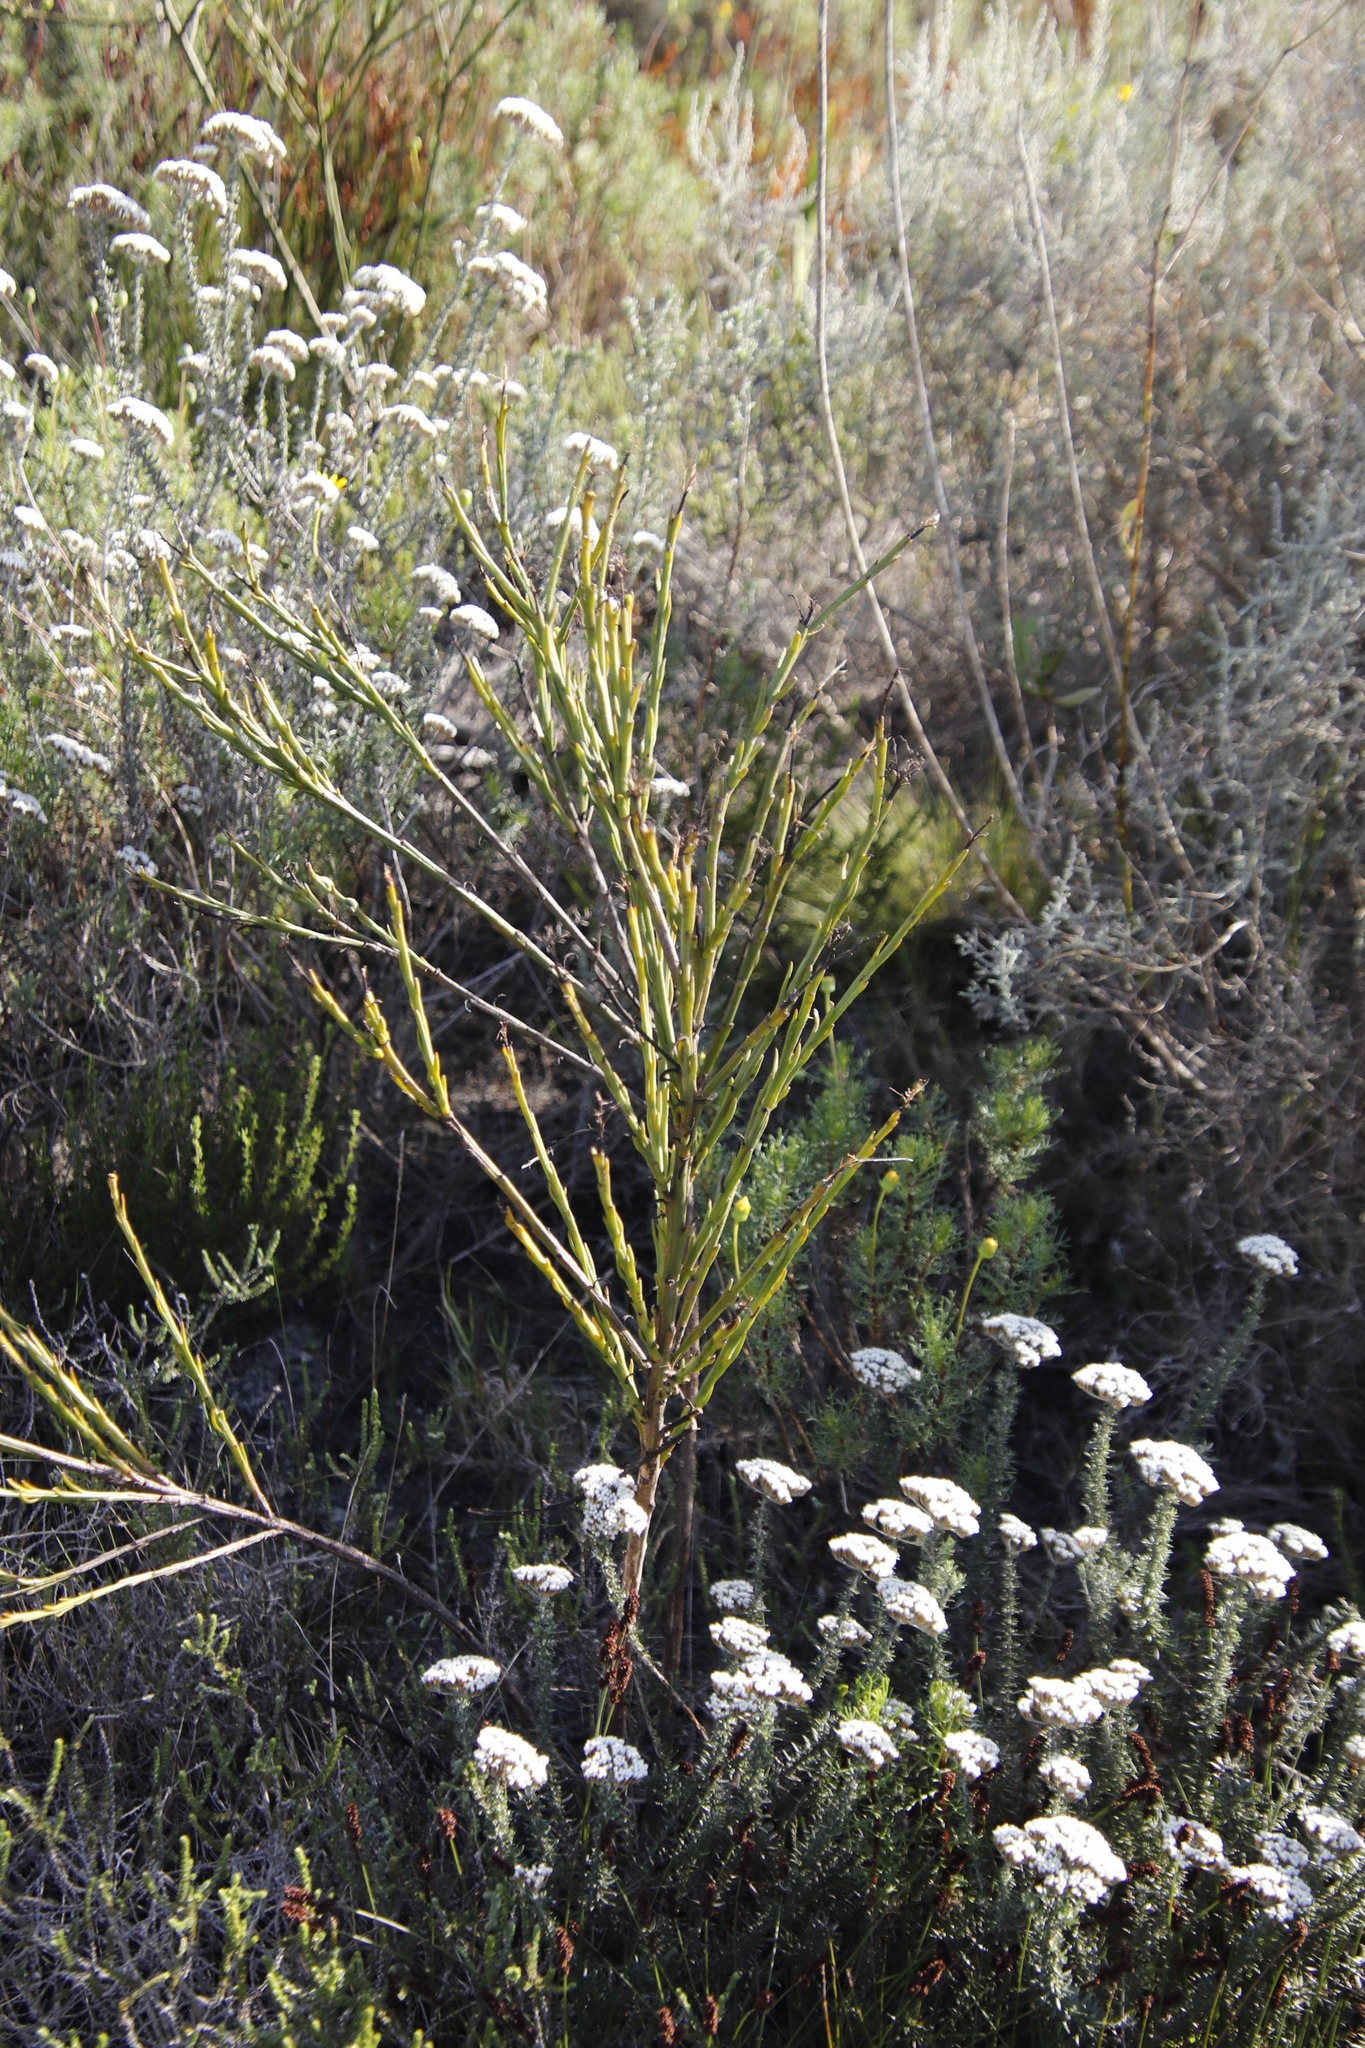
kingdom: Plantae
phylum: Tracheophyta
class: Magnoliopsida
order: Santalales
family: Thesiaceae
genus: Thesium
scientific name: Thesium strictum
